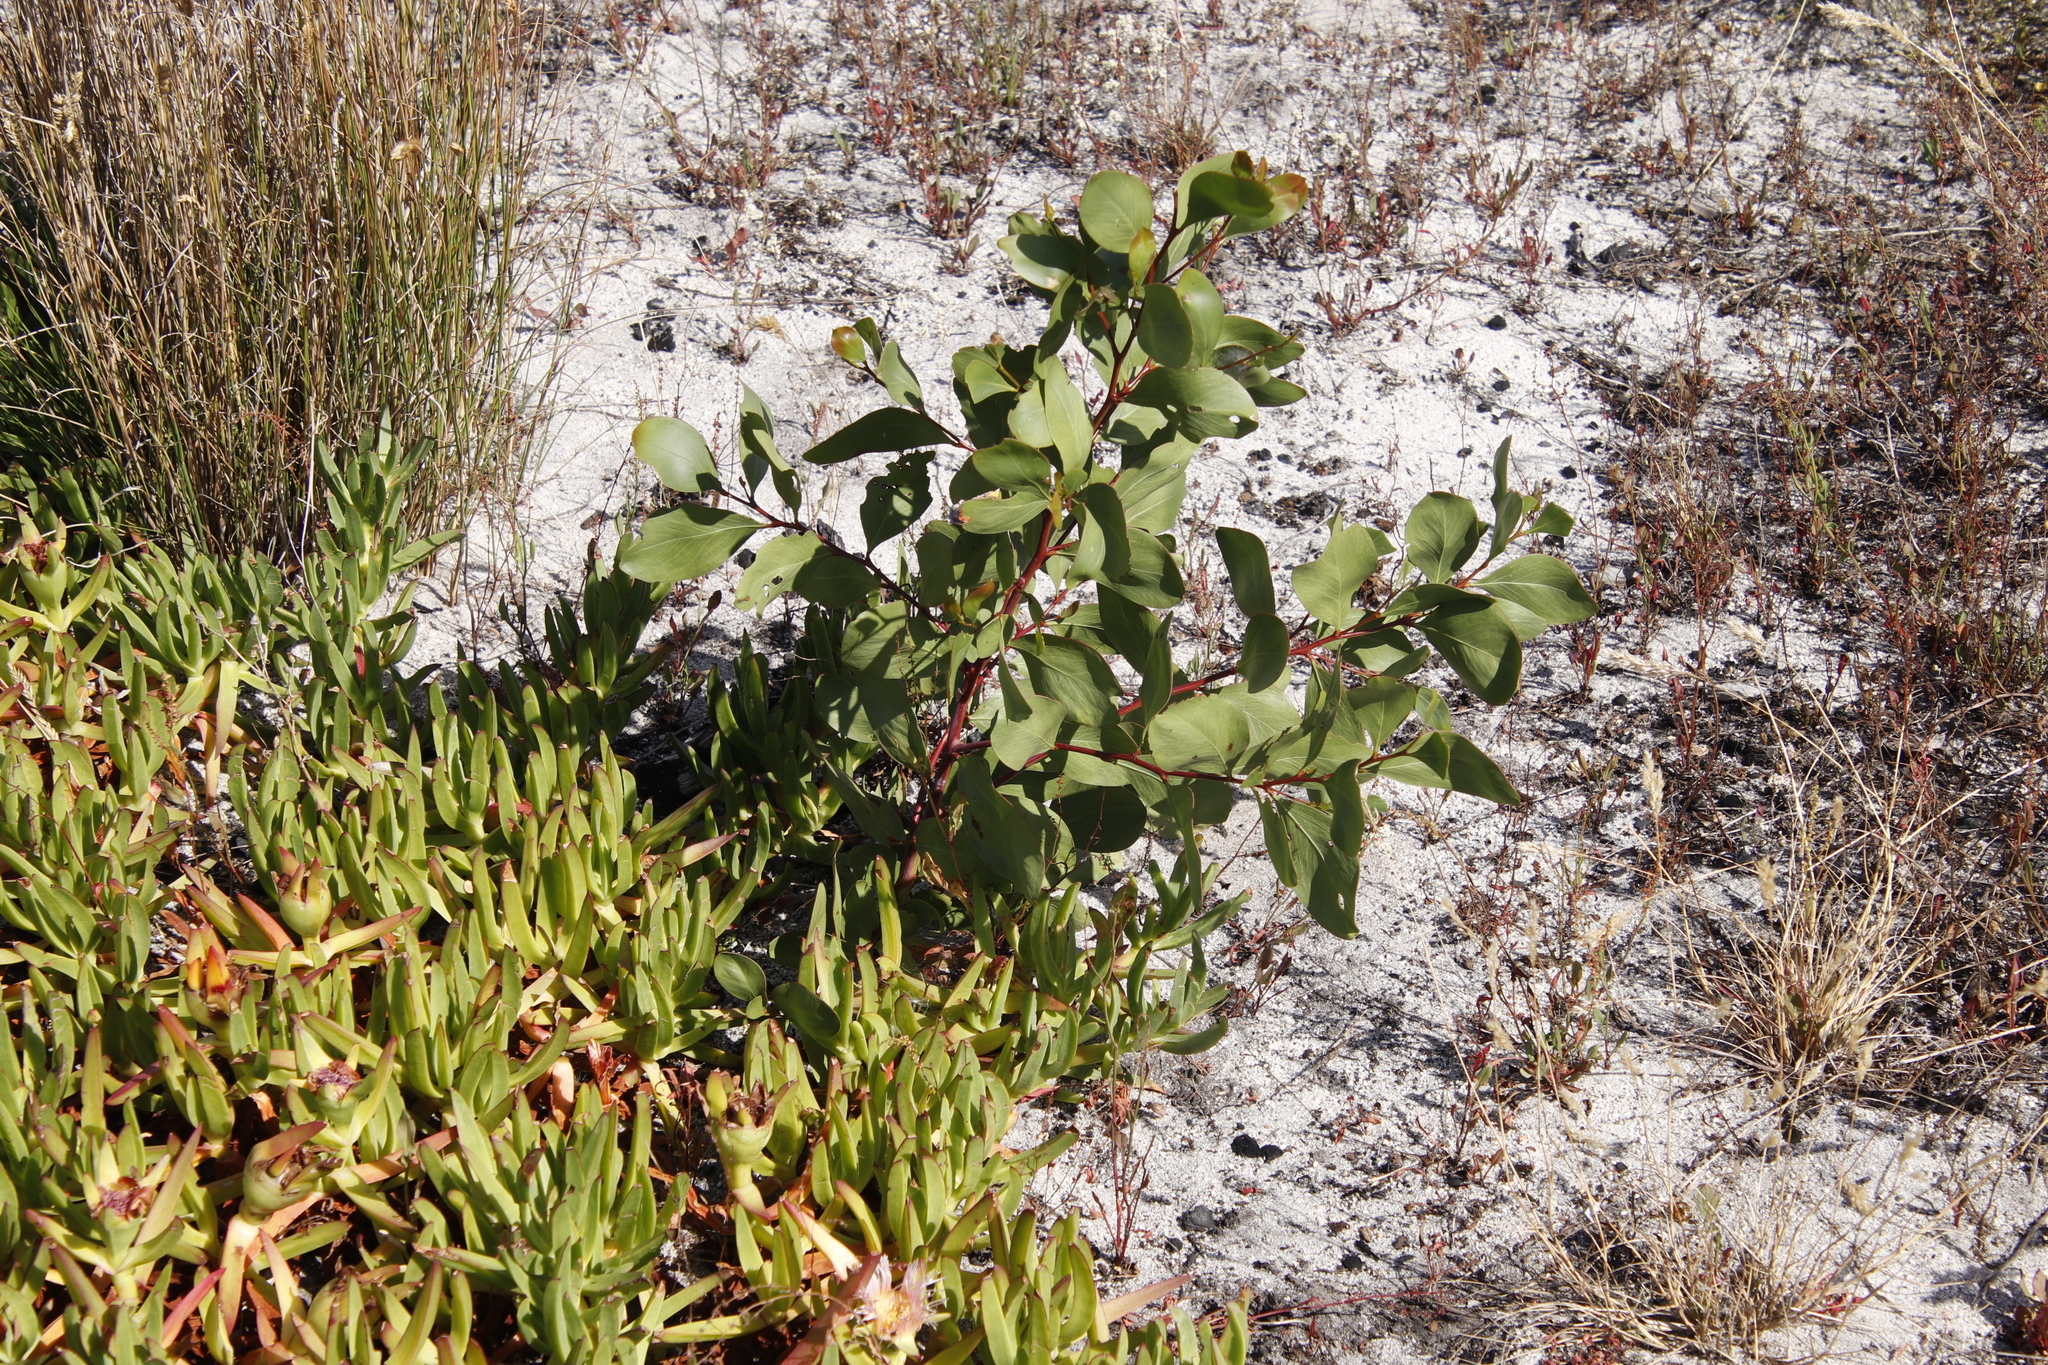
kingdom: Plantae
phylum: Tracheophyta
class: Magnoliopsida
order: Fabales
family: Fabaceae
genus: Acacia
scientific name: Acacia pycnantha
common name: Golden wattle
